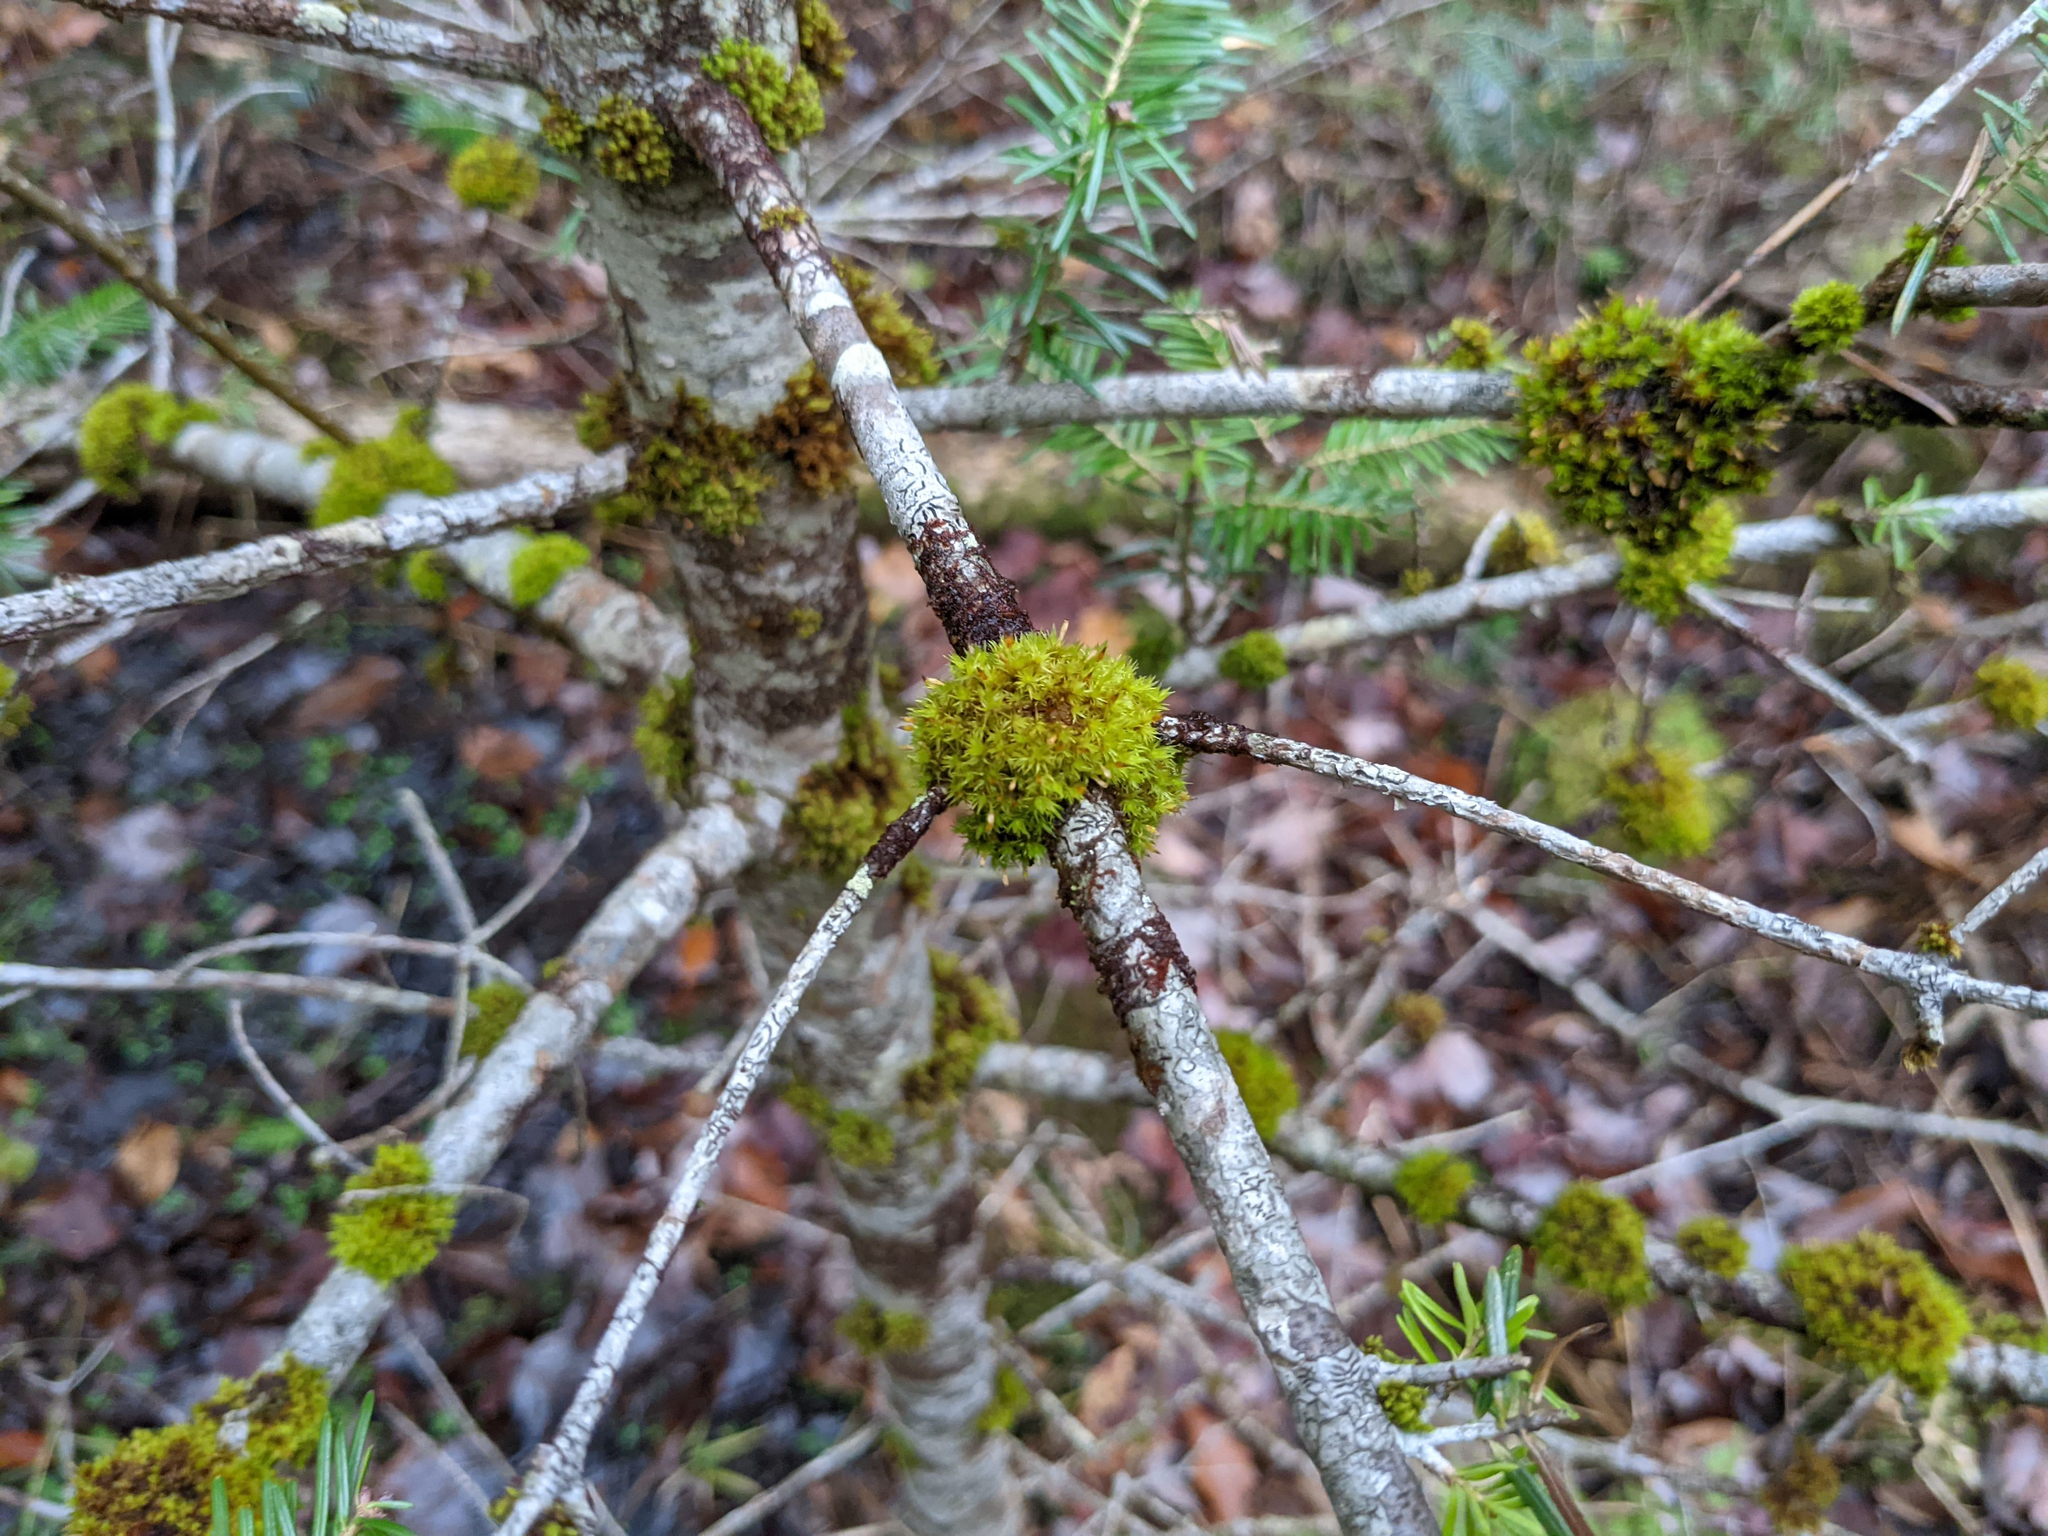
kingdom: Plantae
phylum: Bryophyta
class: Bryopsida
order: Orthotrichales
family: Orthotrichaceae
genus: Ulota
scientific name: Ulota crispa
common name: Crisped pincushion moss
